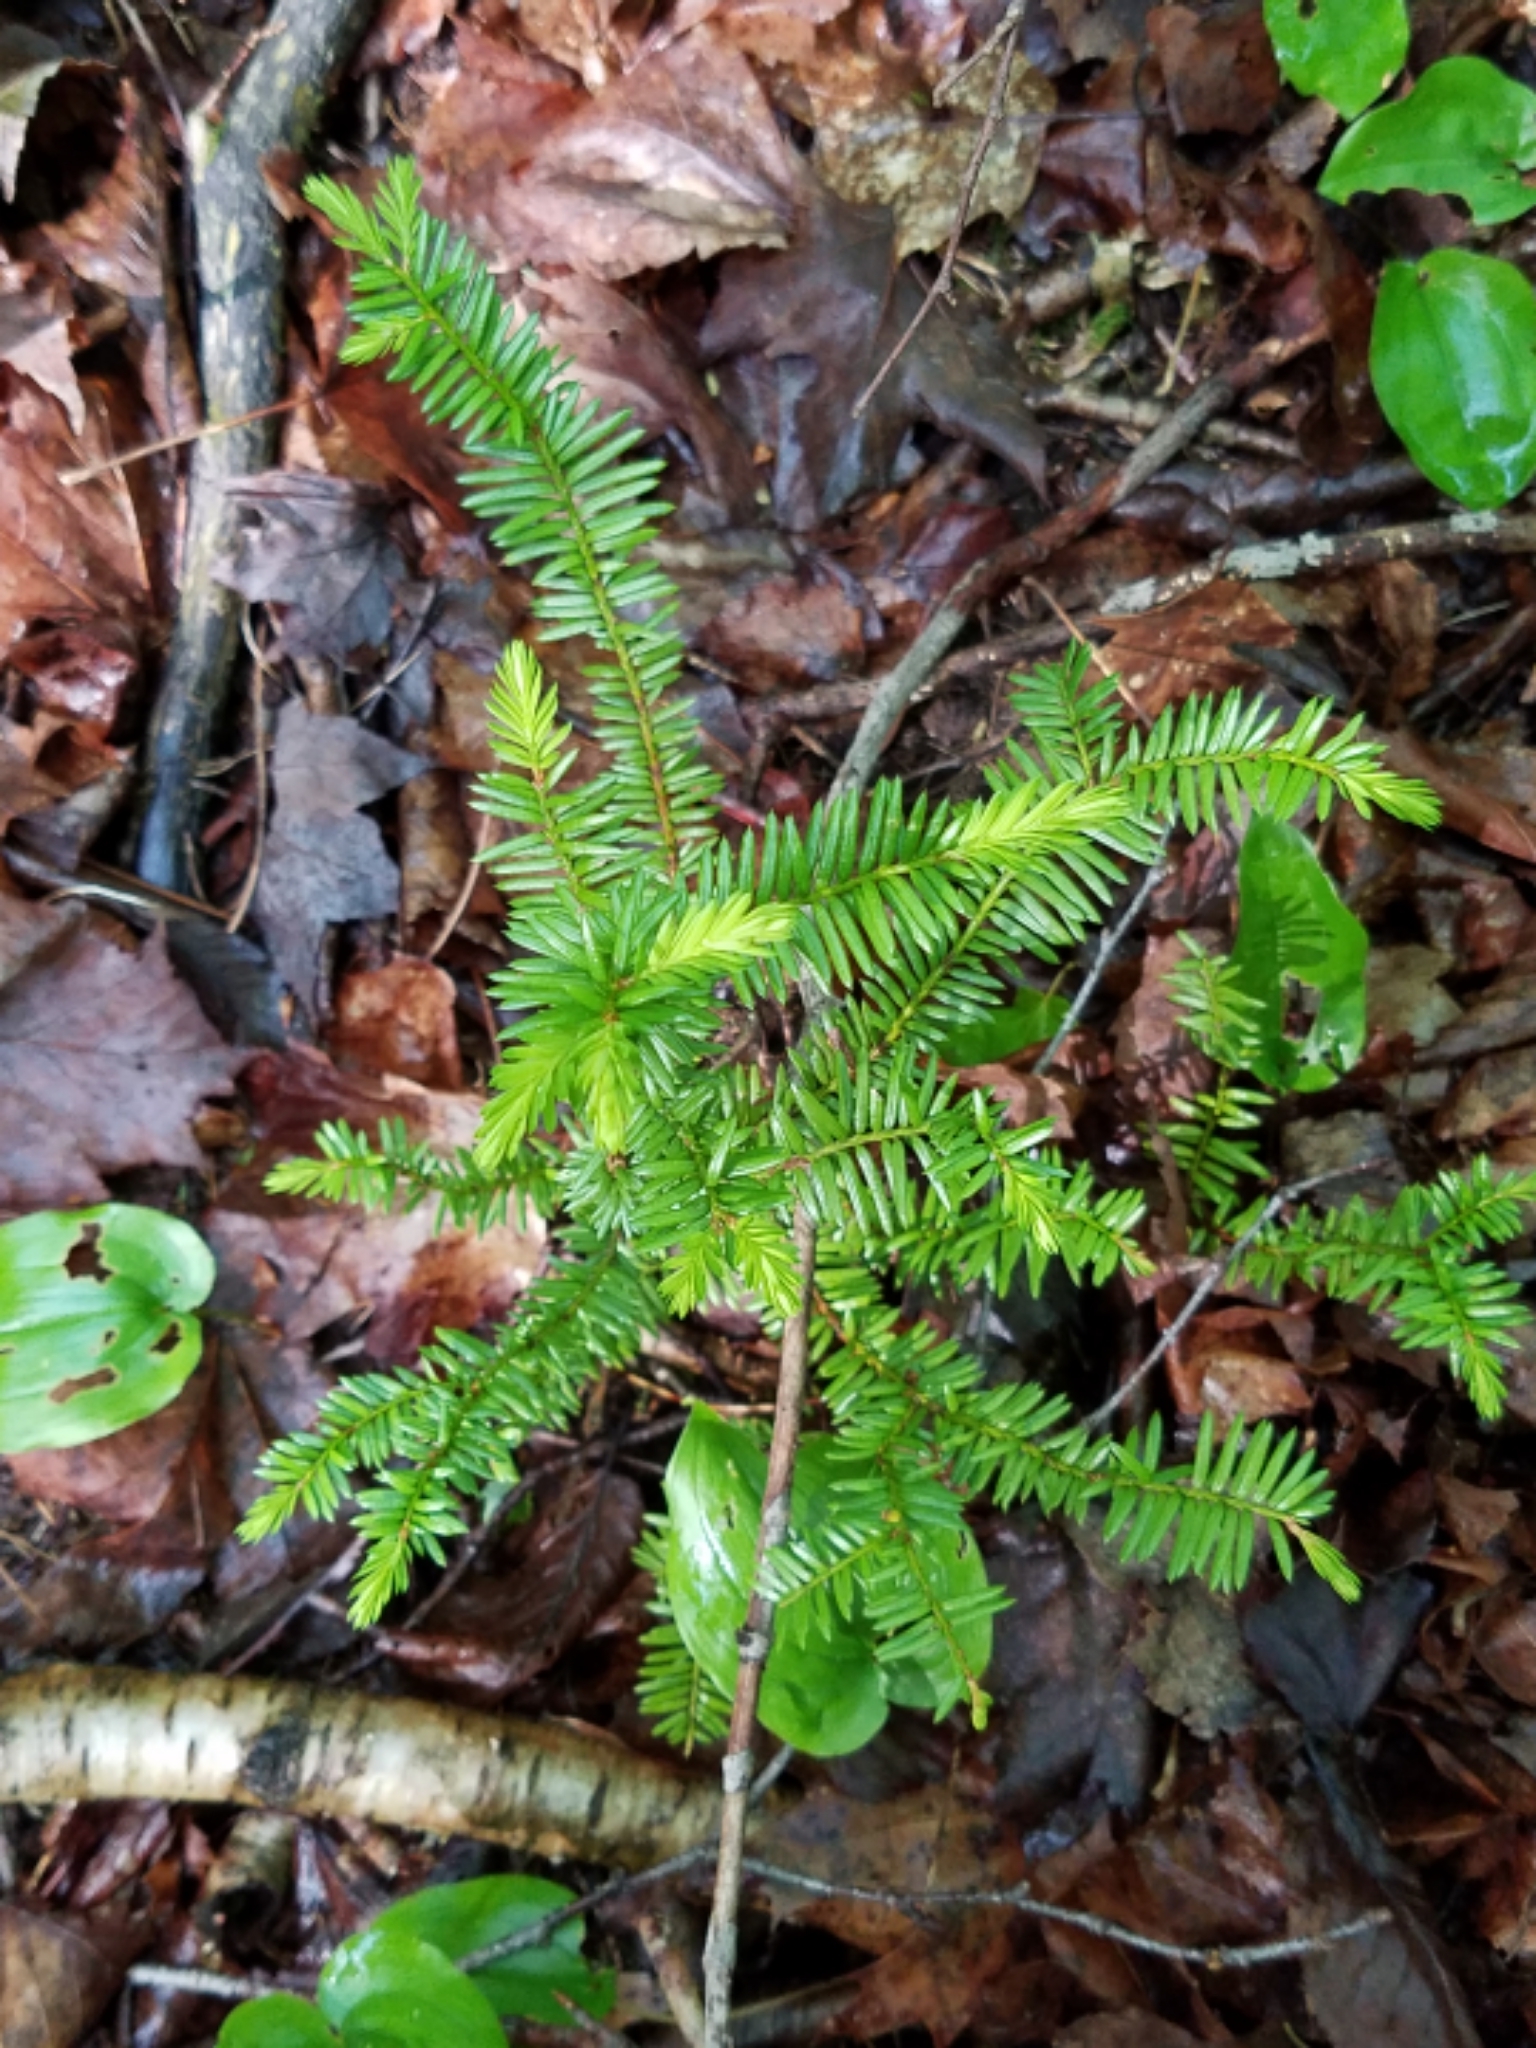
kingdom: Plantae
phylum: Tracheophyta
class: Pinopsida
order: Pinales
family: Taxaceae
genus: Taxus
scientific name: Taxus canadensis
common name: American yew
